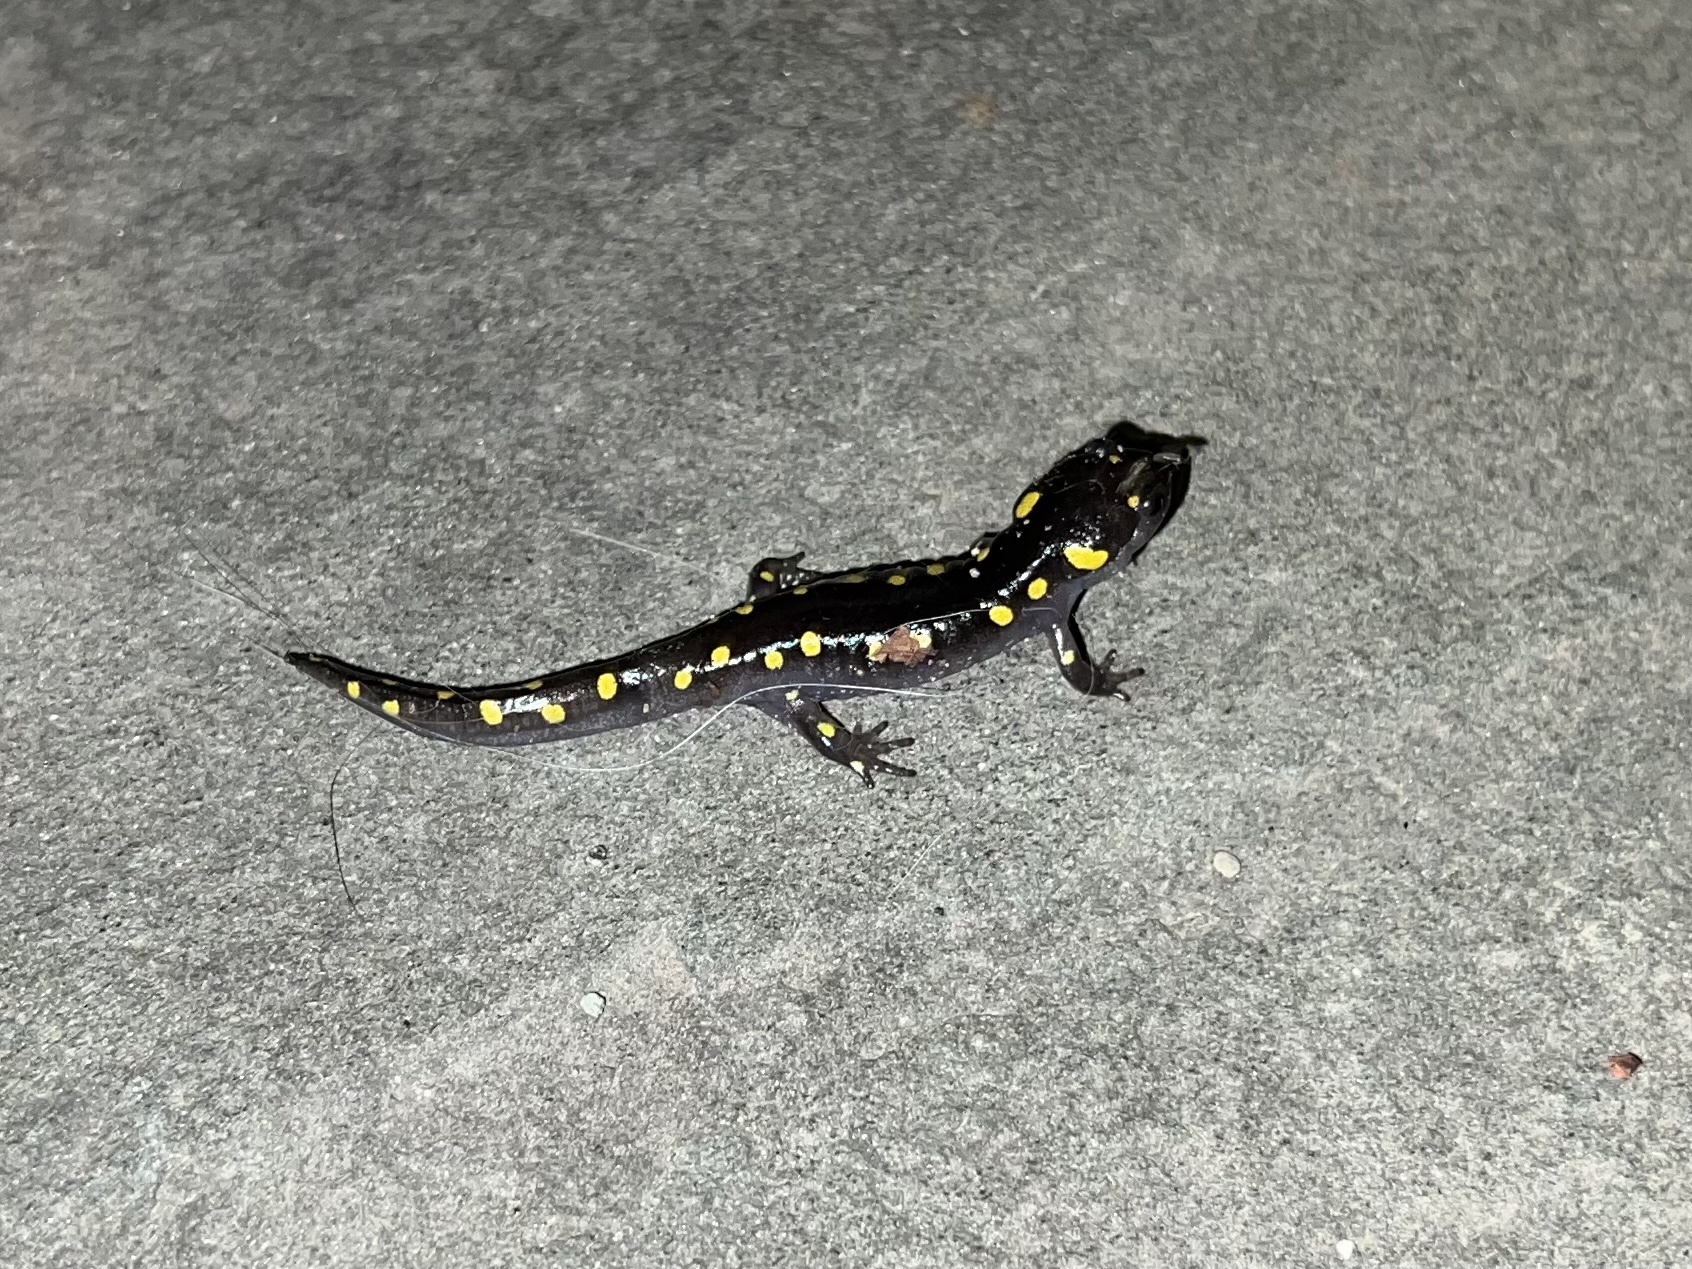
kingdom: Animalia
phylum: Chordata
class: Amphibia
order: Caudata
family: Ambystomatidae
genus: Ambystoma
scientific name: Ambystoma maculatum
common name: Spotted salamander
